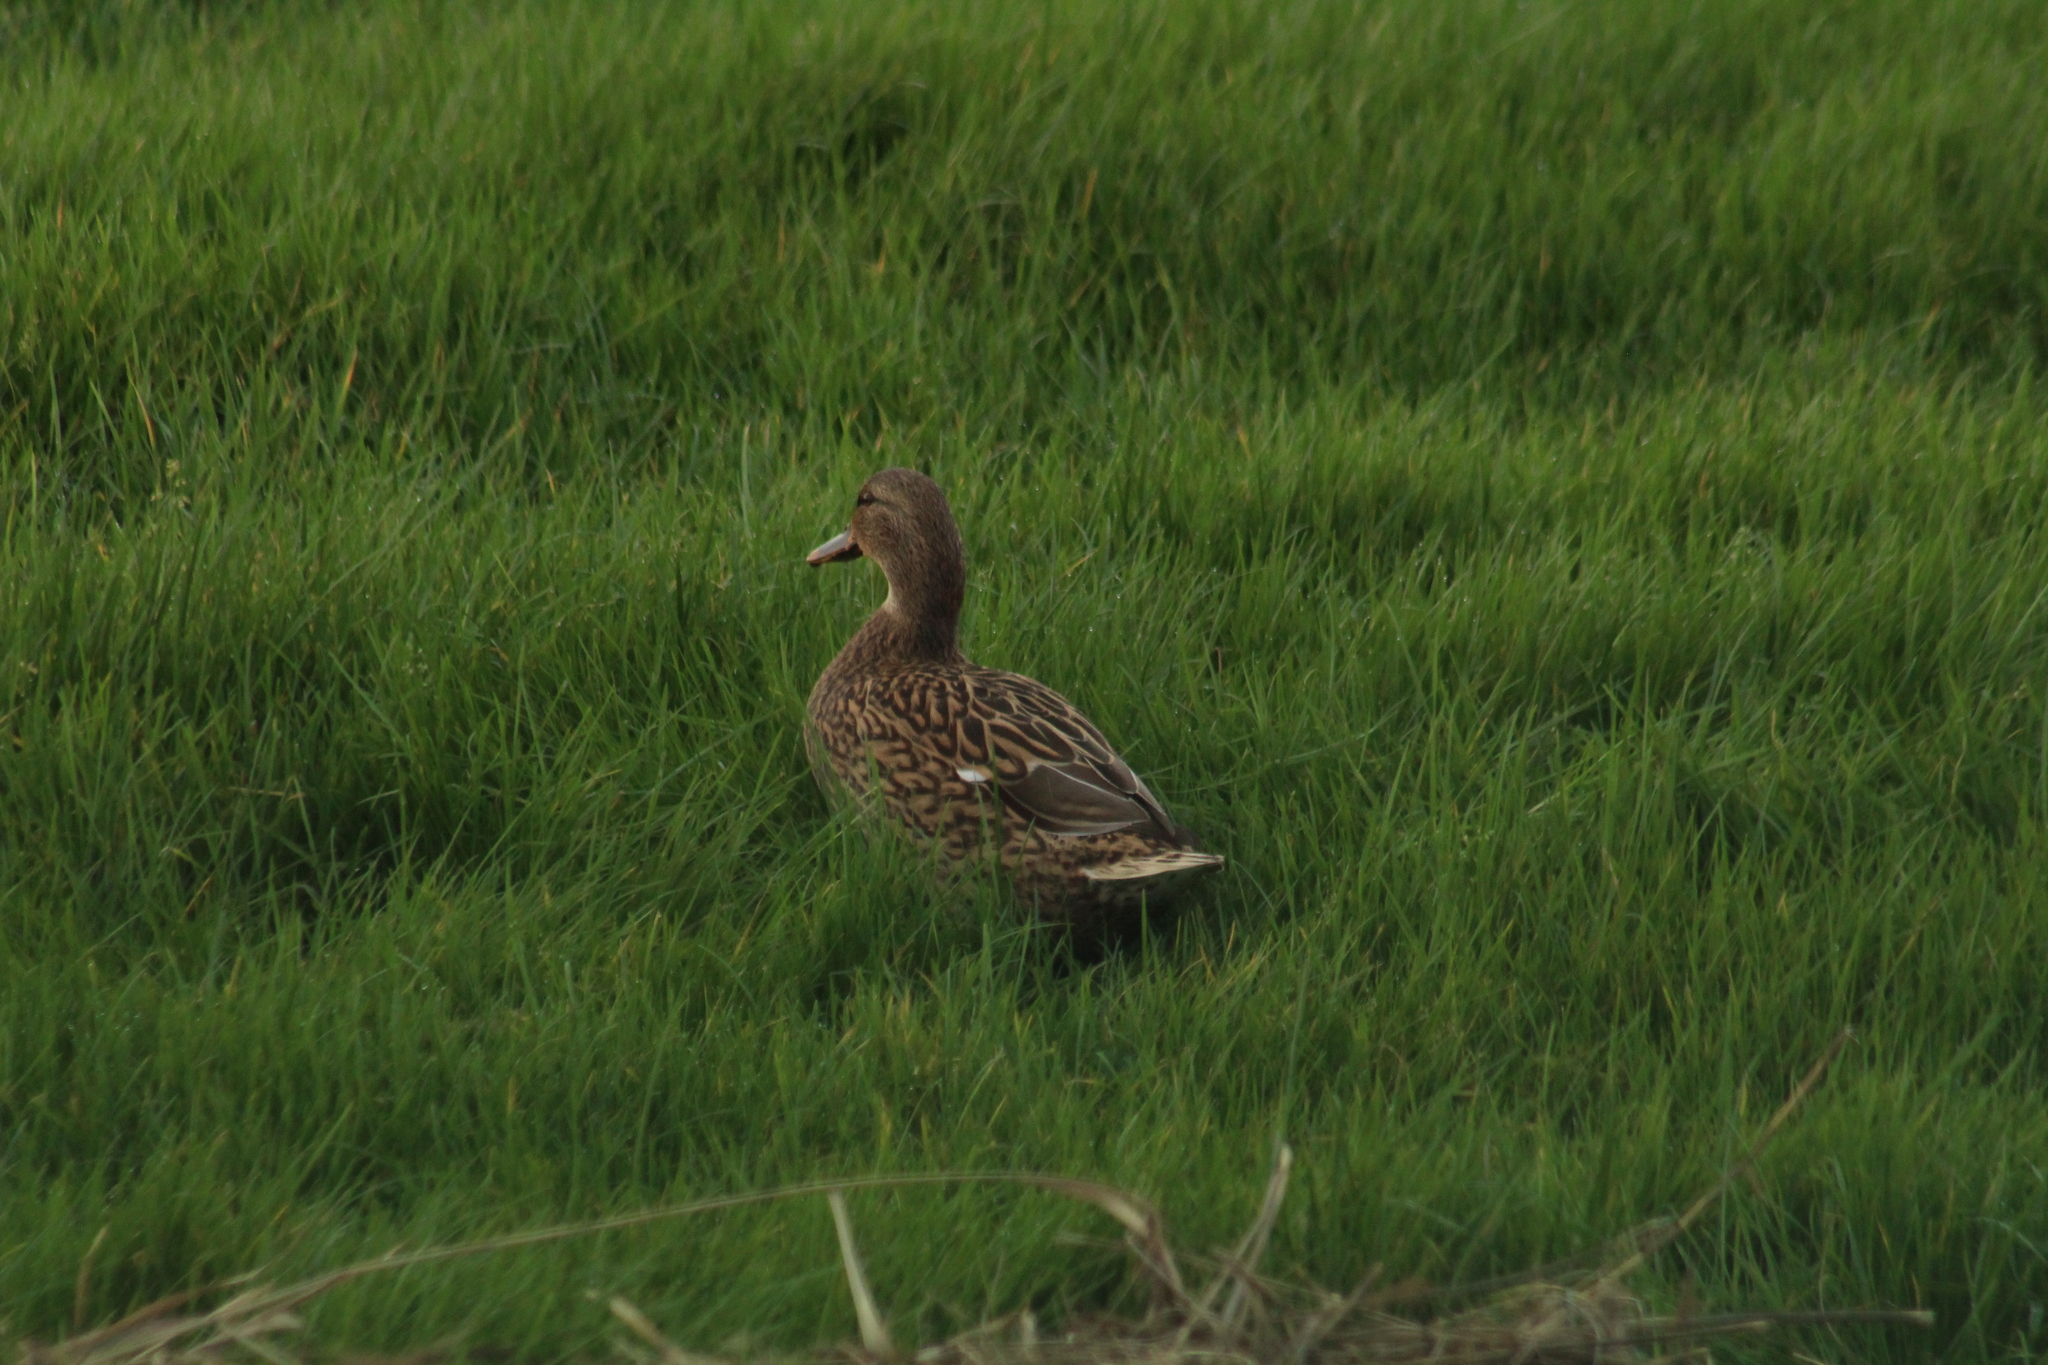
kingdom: Animalia
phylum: Chordata
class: Aves
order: Anseriformes
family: Anatidae
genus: Anas
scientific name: Anas platyrhynchos
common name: Mallard
